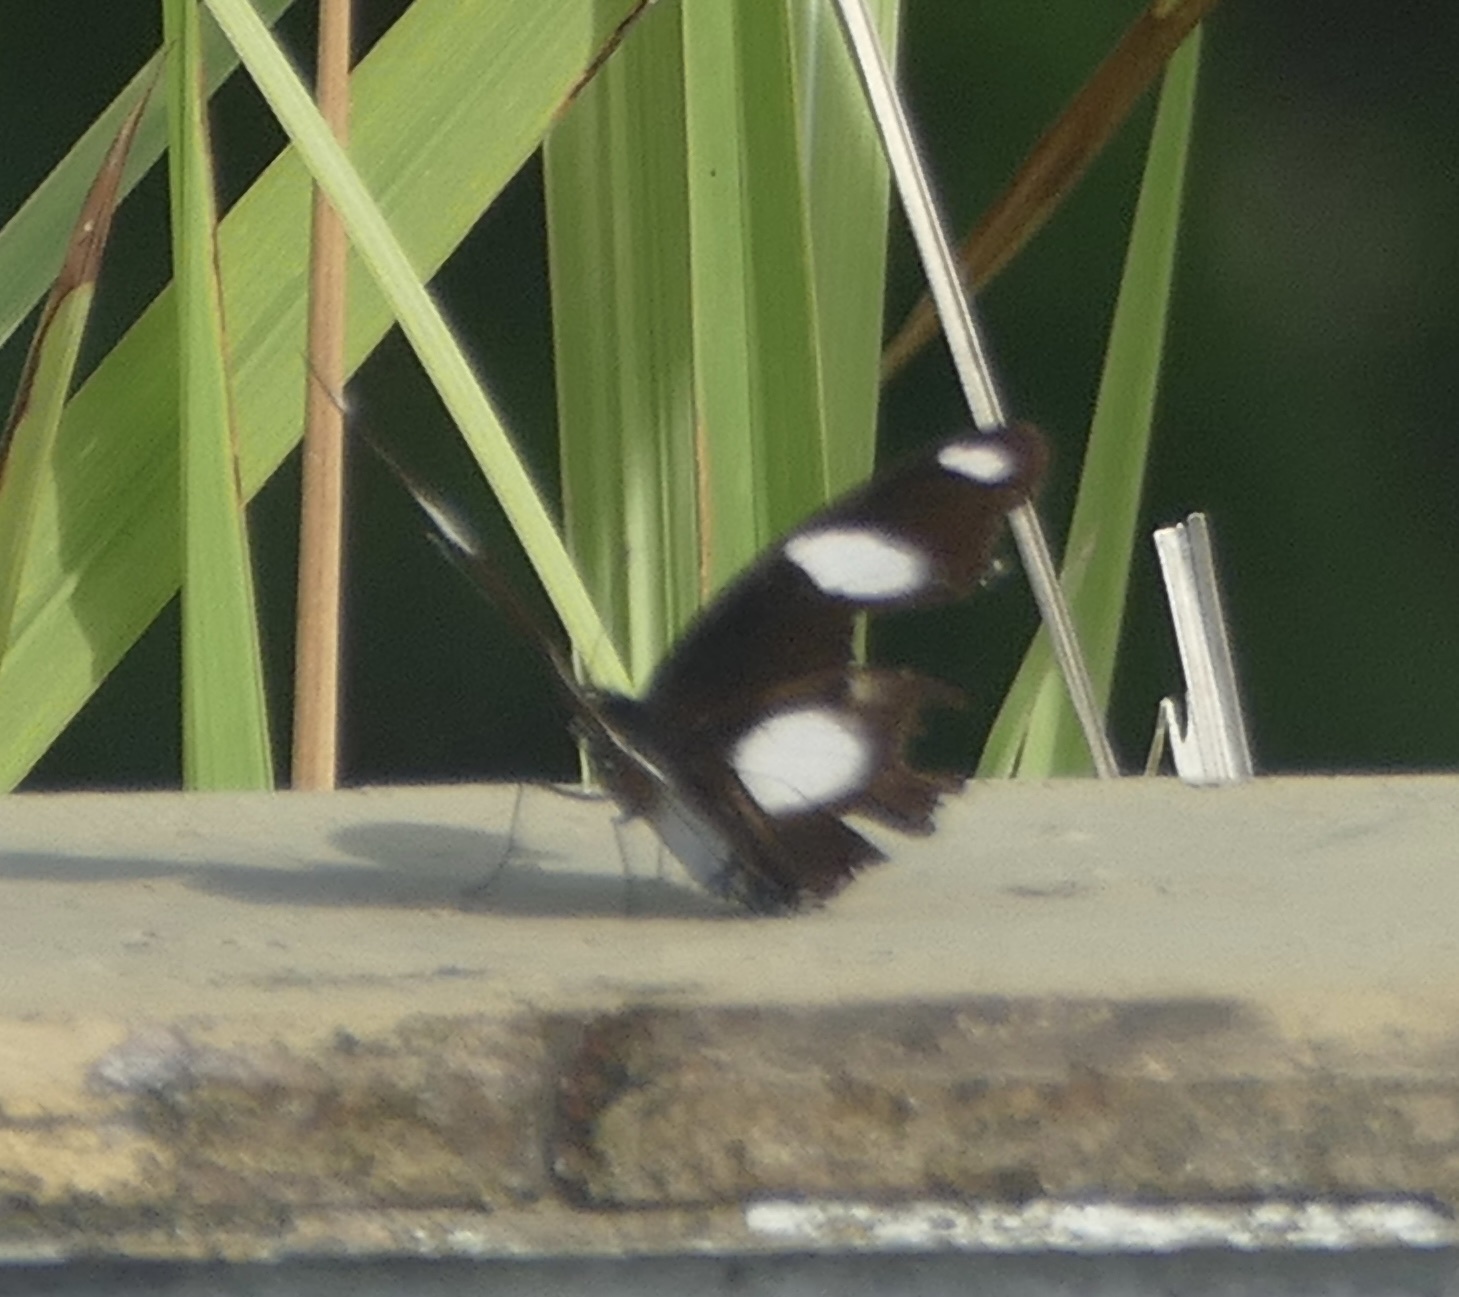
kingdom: Animalia
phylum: Arthropoda
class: Insecta
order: Lepidoptera
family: Nymphalidae
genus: Hypolimnas
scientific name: Hypolimnas misippus
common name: False plain tiger
